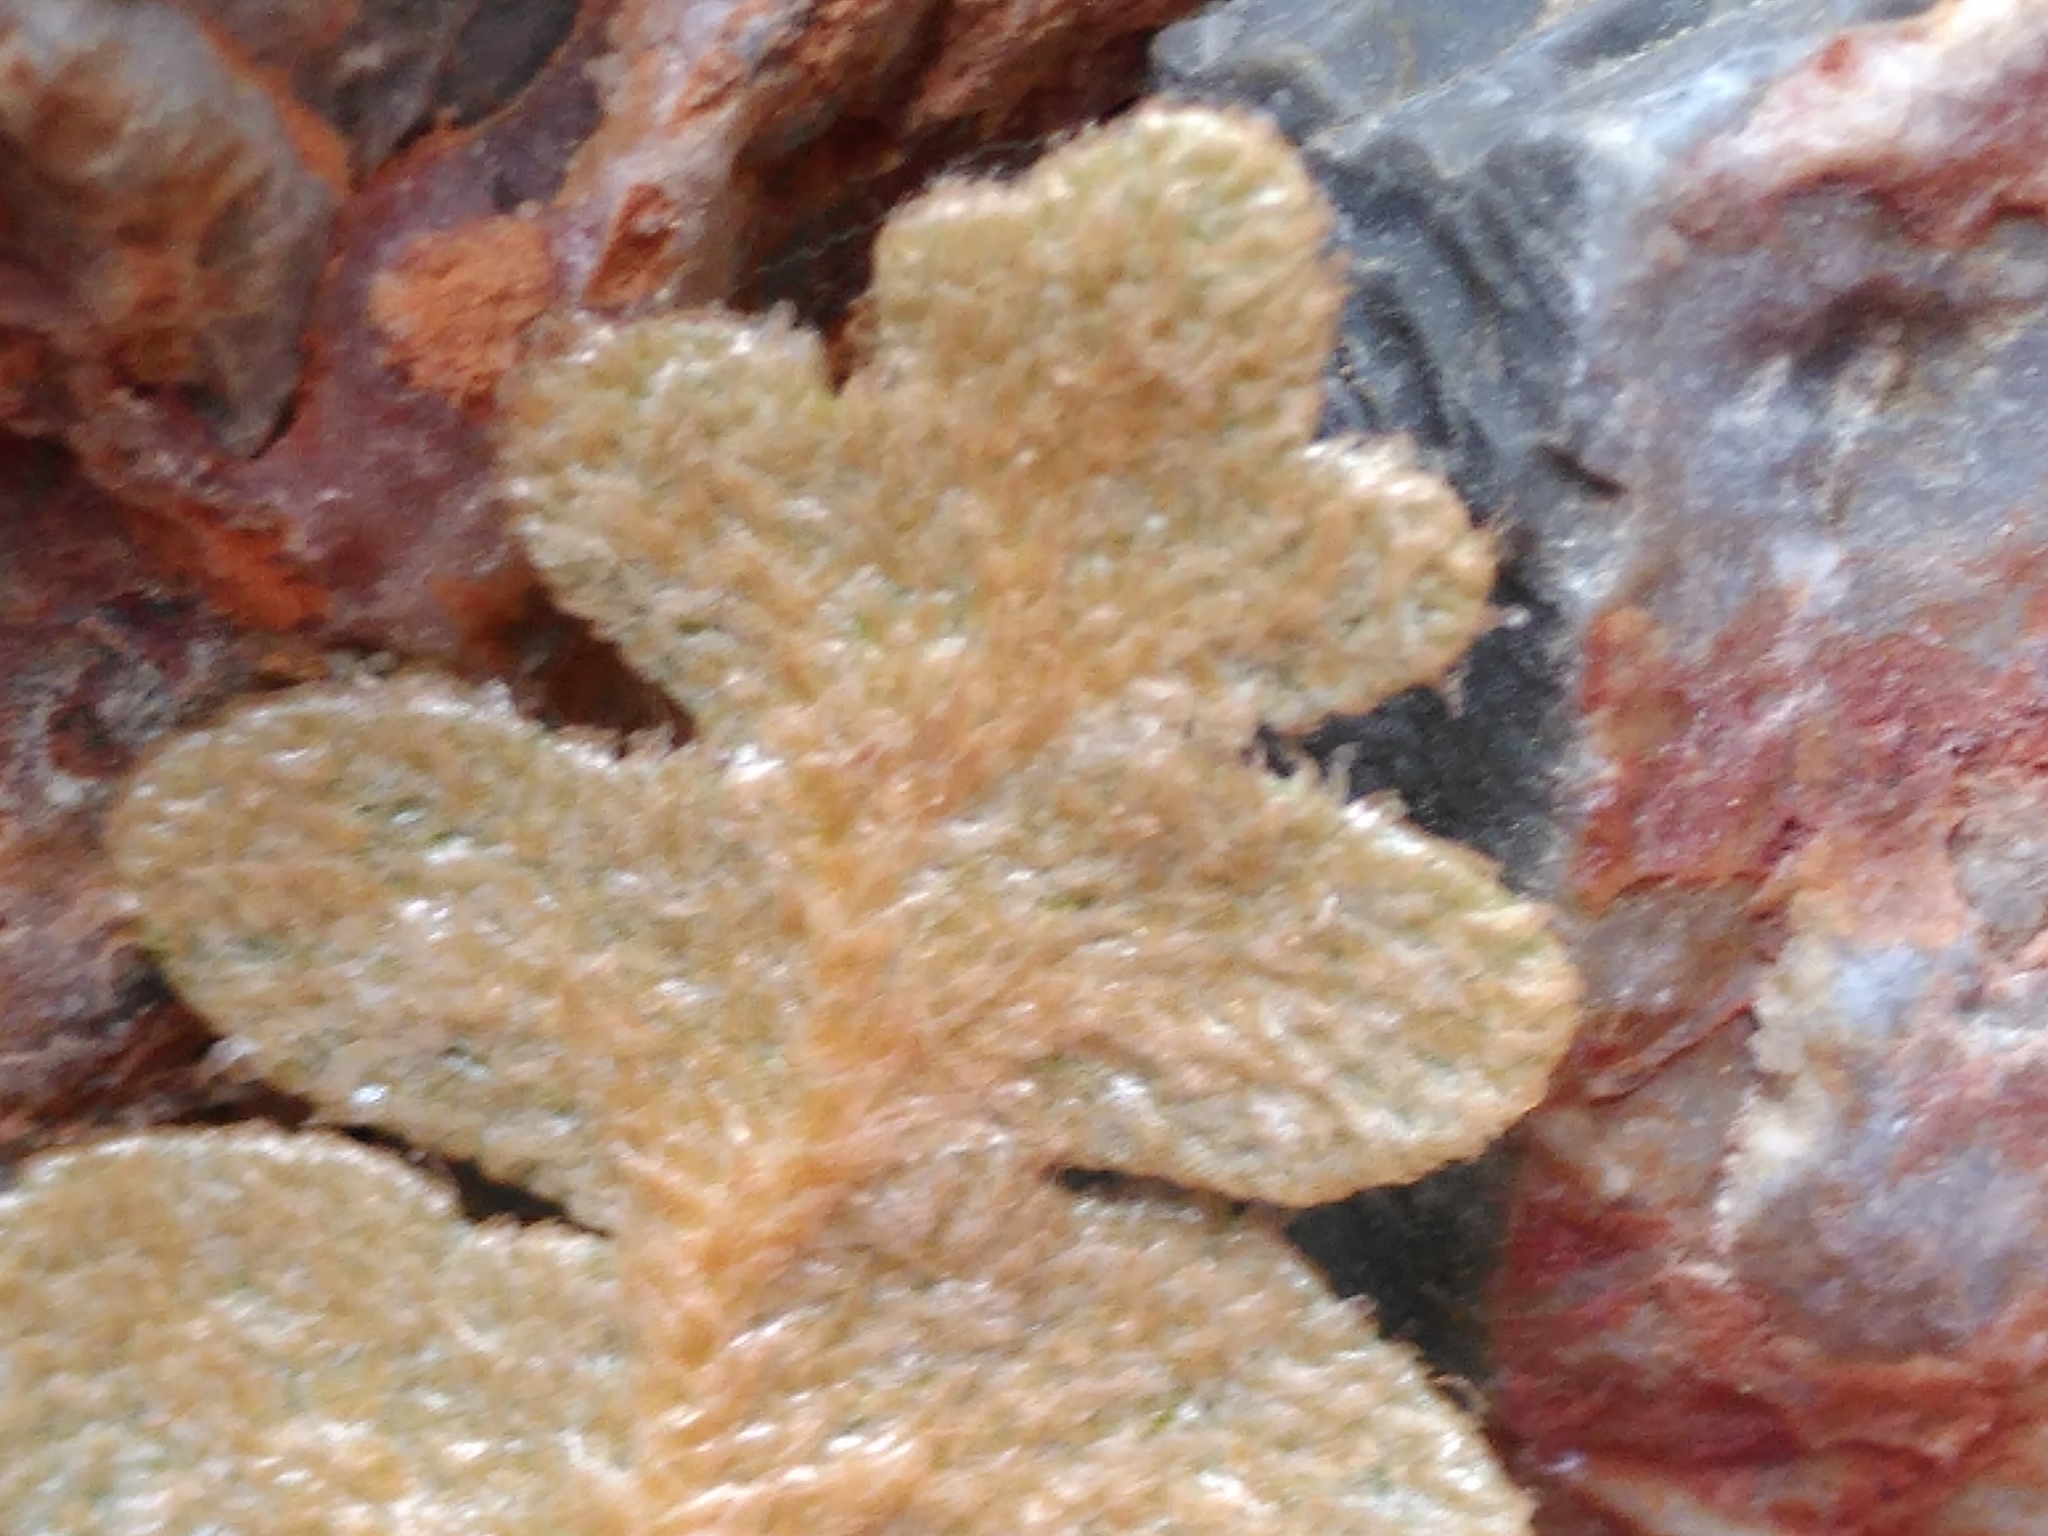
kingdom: Plantae
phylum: Tracheophyta
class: Polypodiopsida
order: Polypodiales
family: Aspleniaceae
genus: Asplenium
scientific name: Asplenium ceterach
